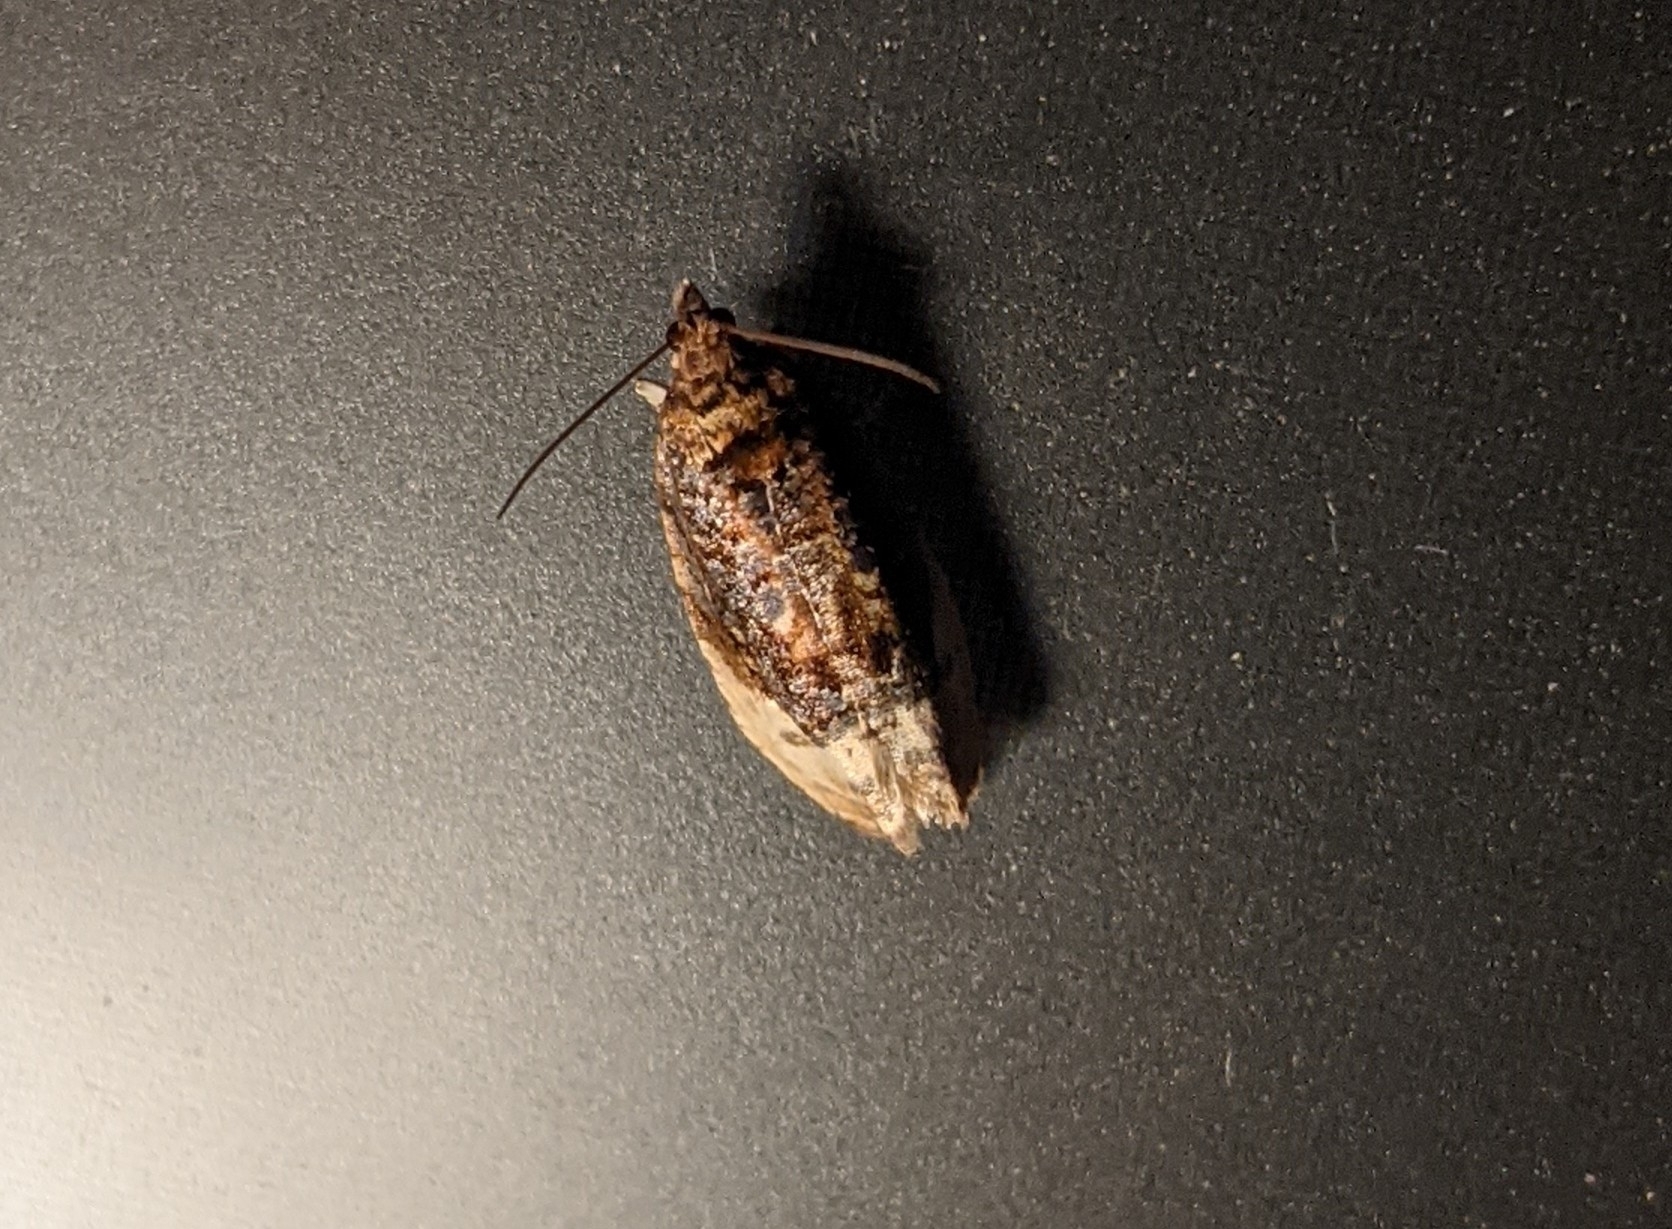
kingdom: Animalia
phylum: Arthropoda
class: Insecta
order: Lepidoptera
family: Tortricidae
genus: Hedya
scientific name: Hedya pruniana
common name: Plum tortrix
